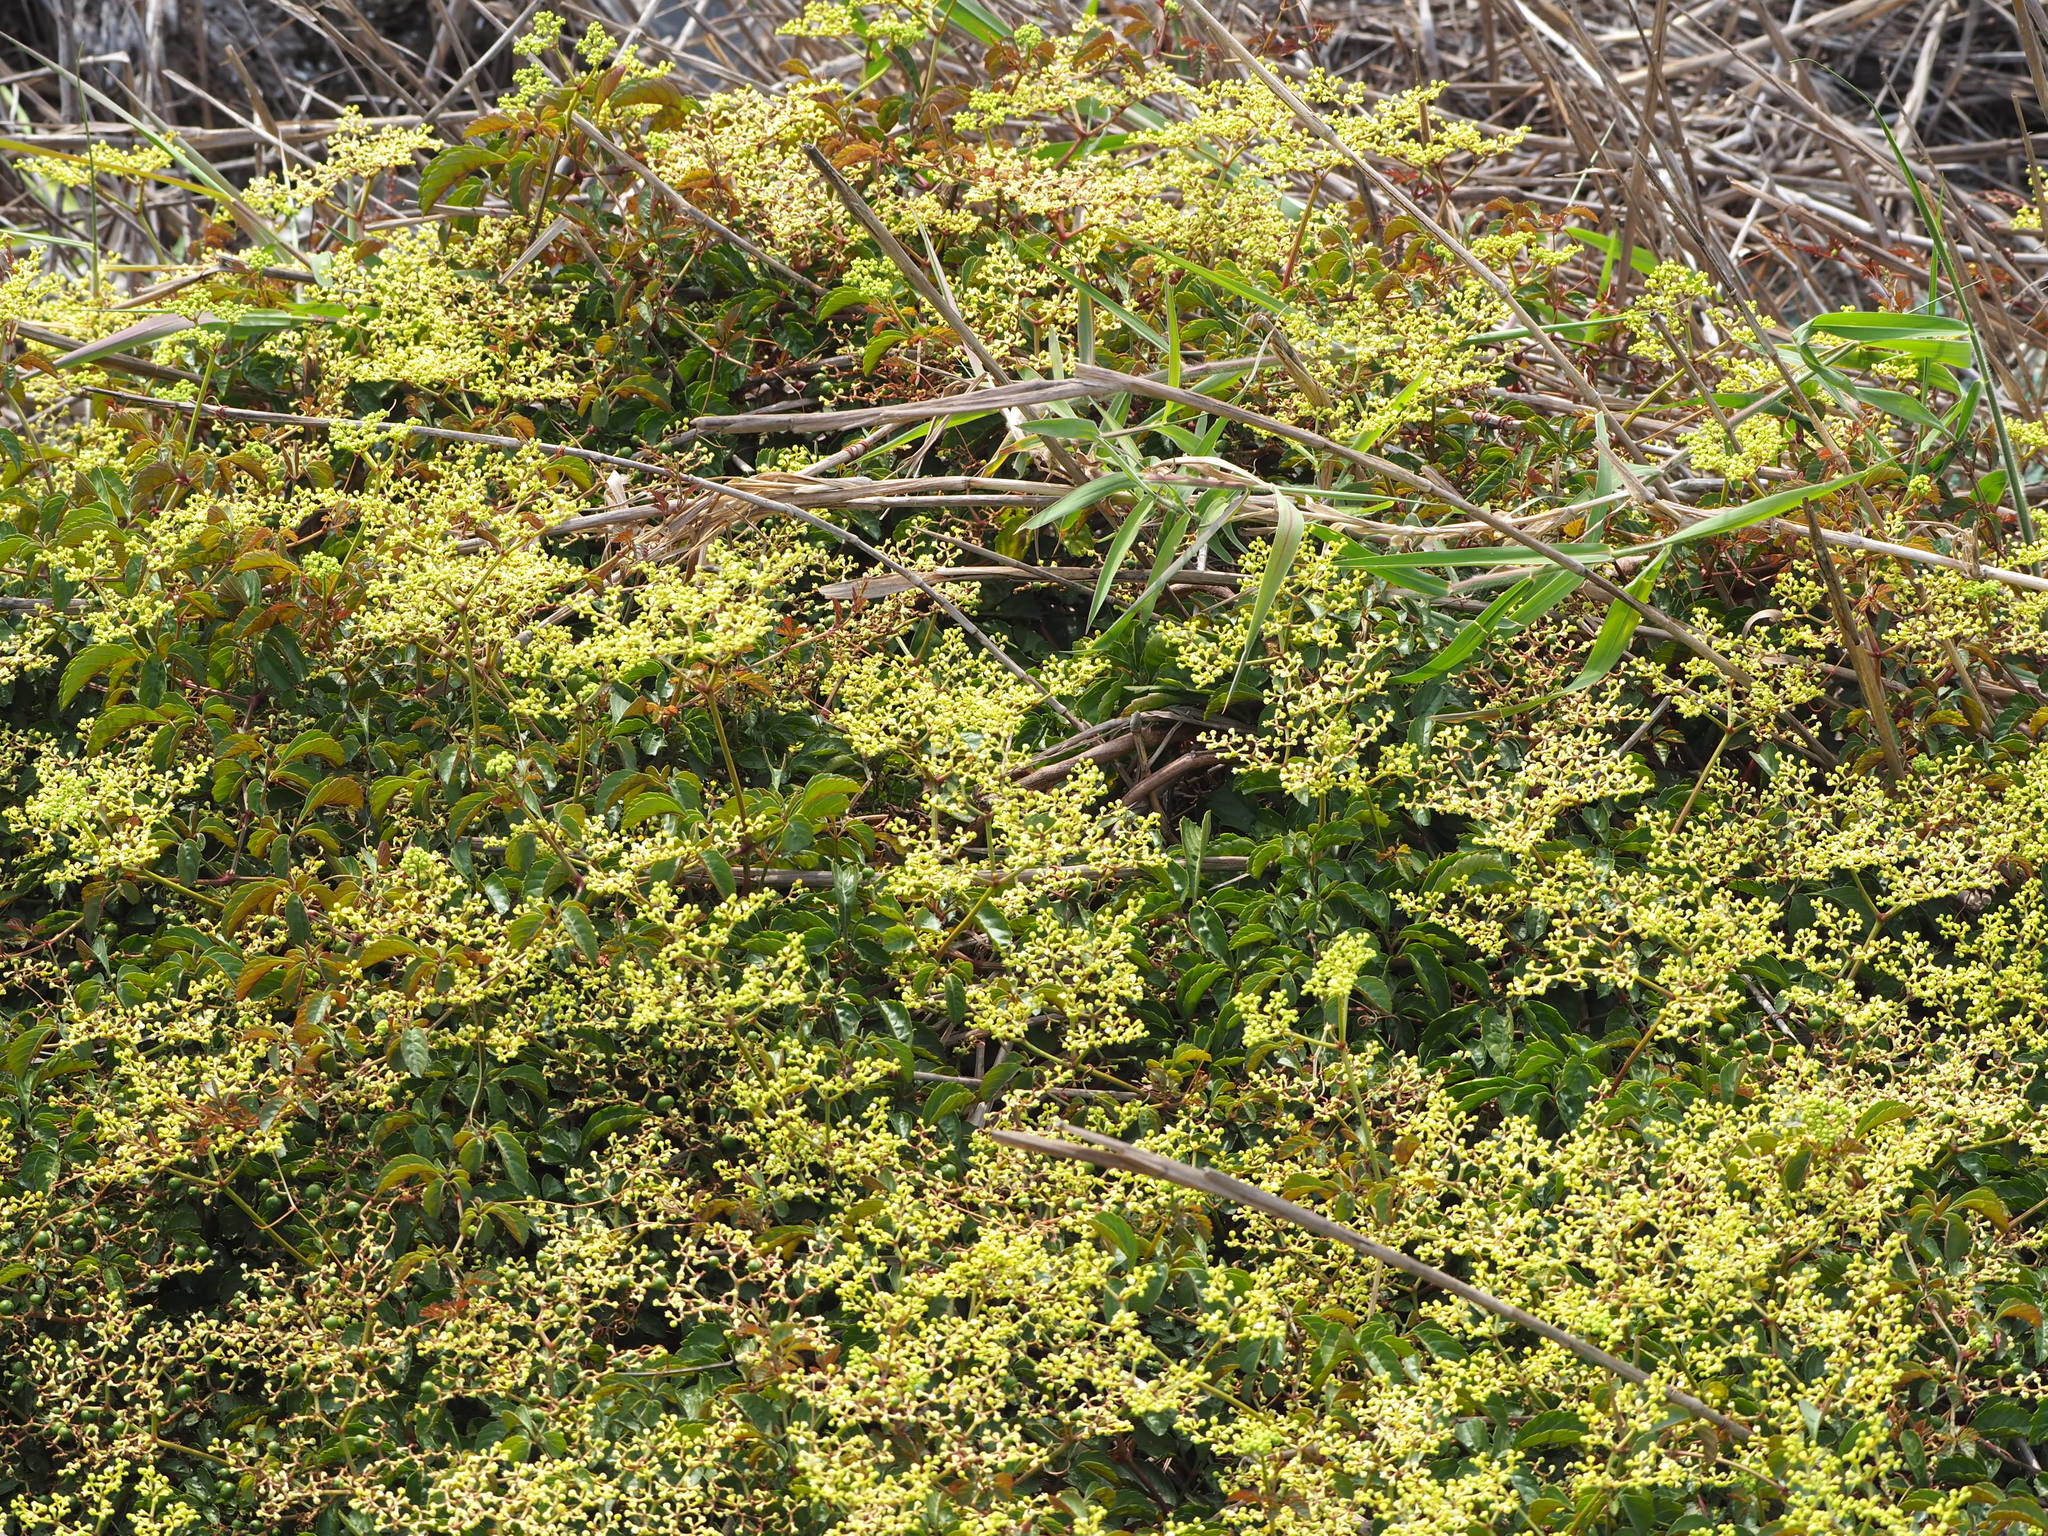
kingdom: Plantae
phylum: Tracheophyta
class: Magnoliopsida
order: Vitales
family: Vitaceae
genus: Causonis
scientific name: Causonis japonica
